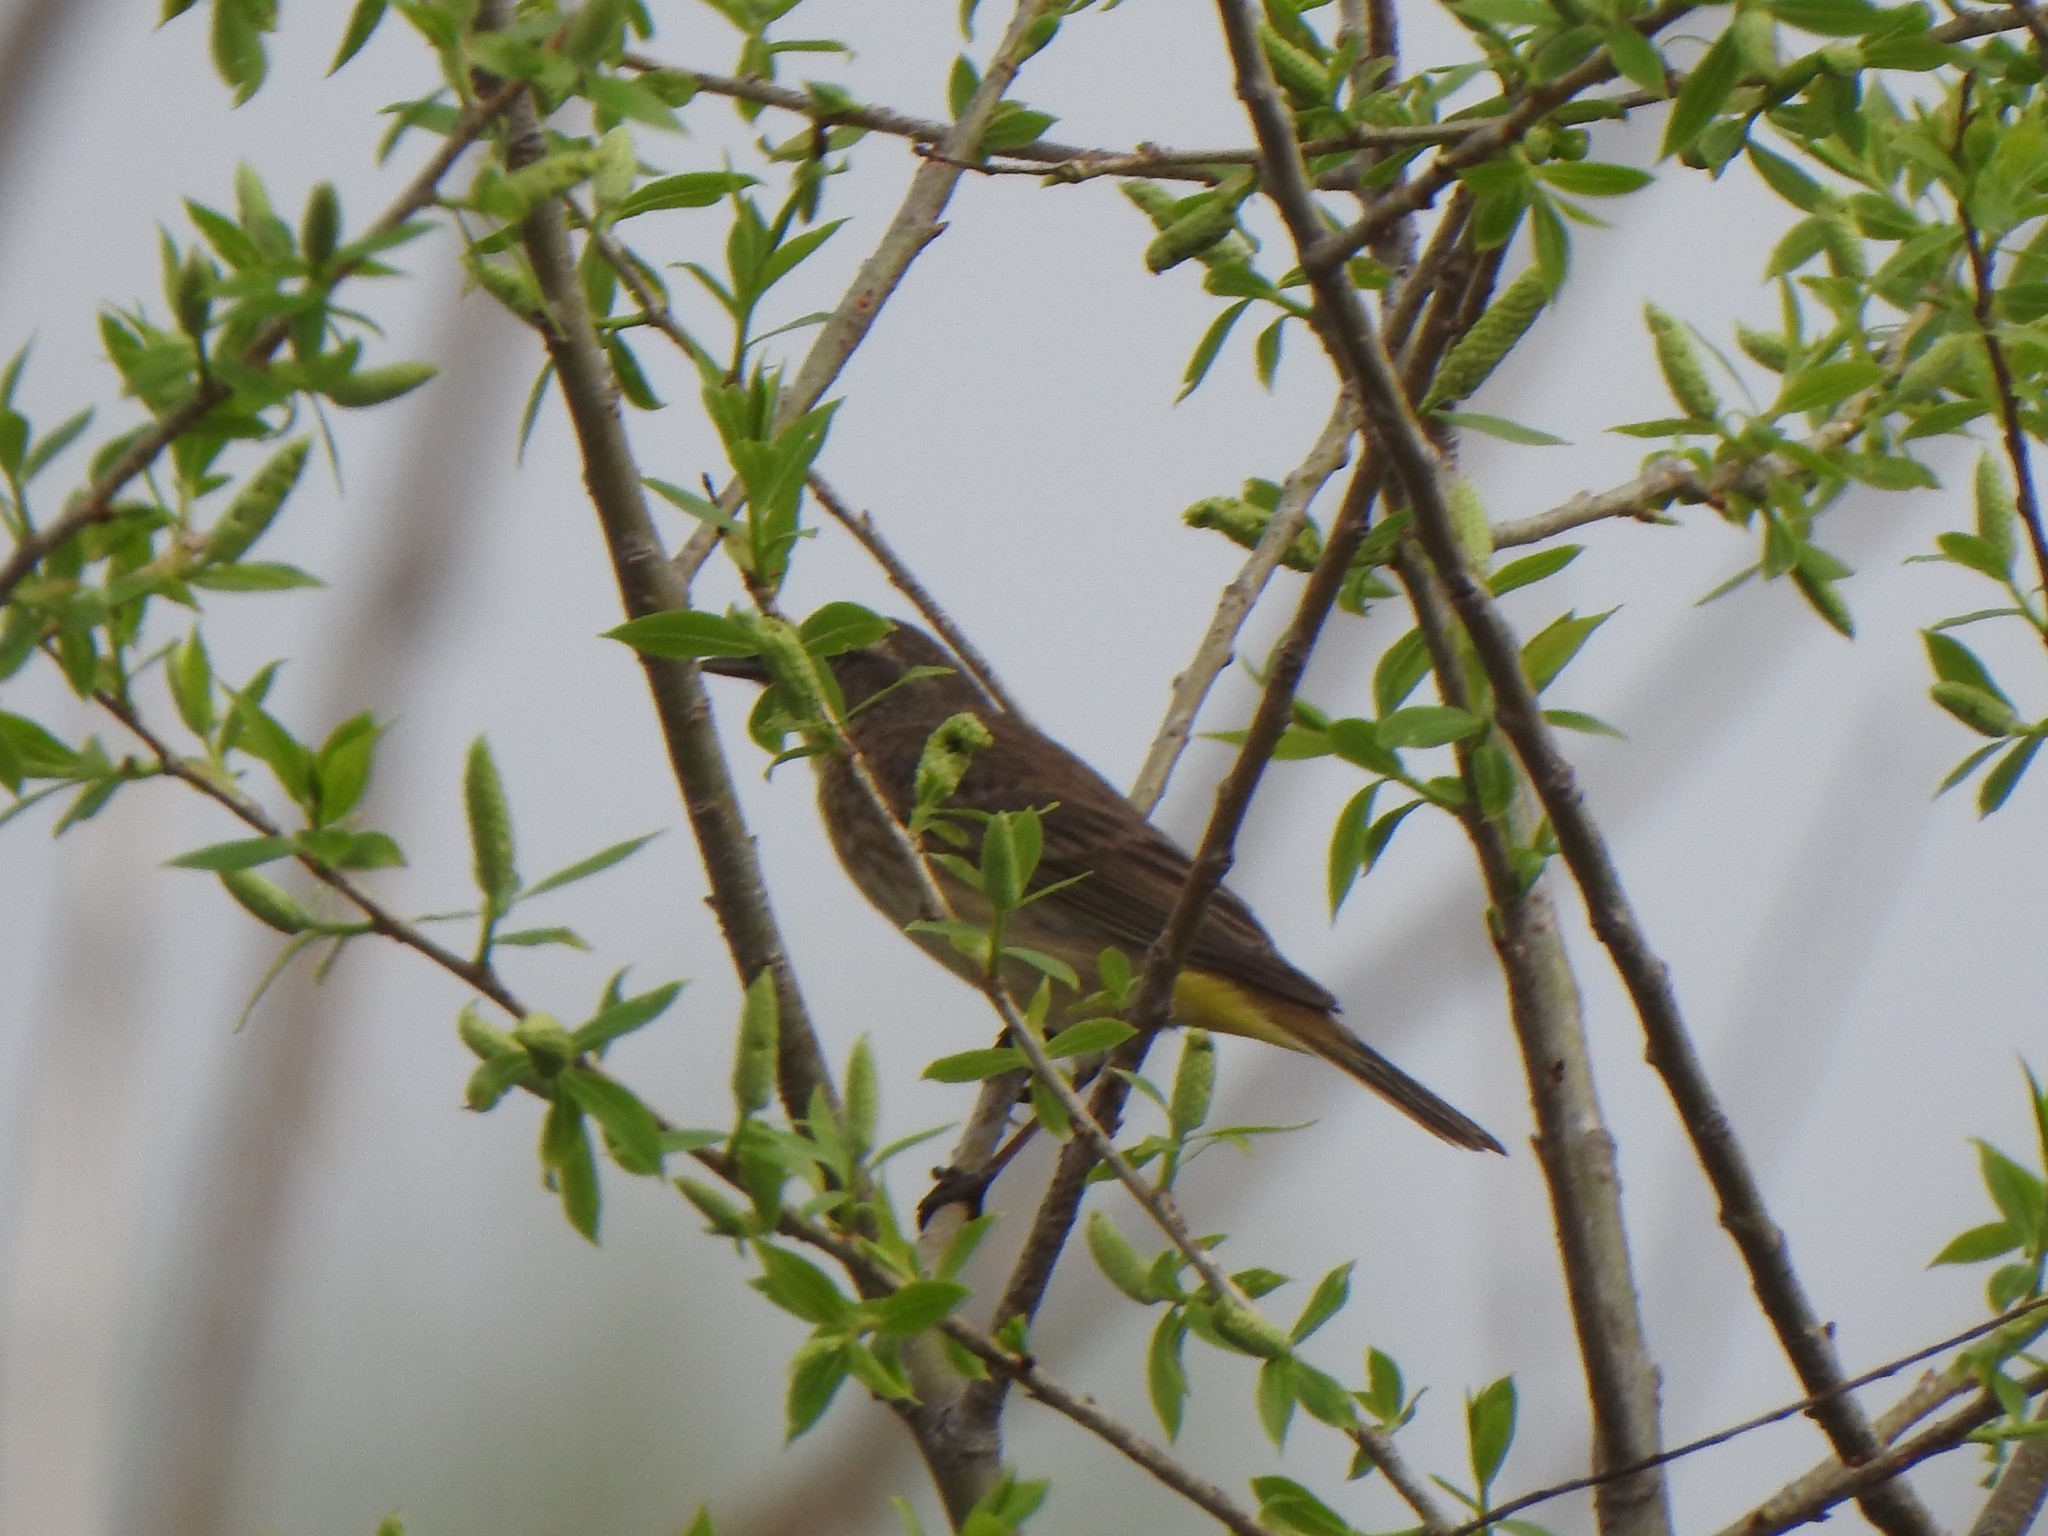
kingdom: Animalia
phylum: Chordata
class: Aves
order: Passeriformes
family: Parulidae
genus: Setophaga
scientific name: Setophaga palmarum
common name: Palm warbler
